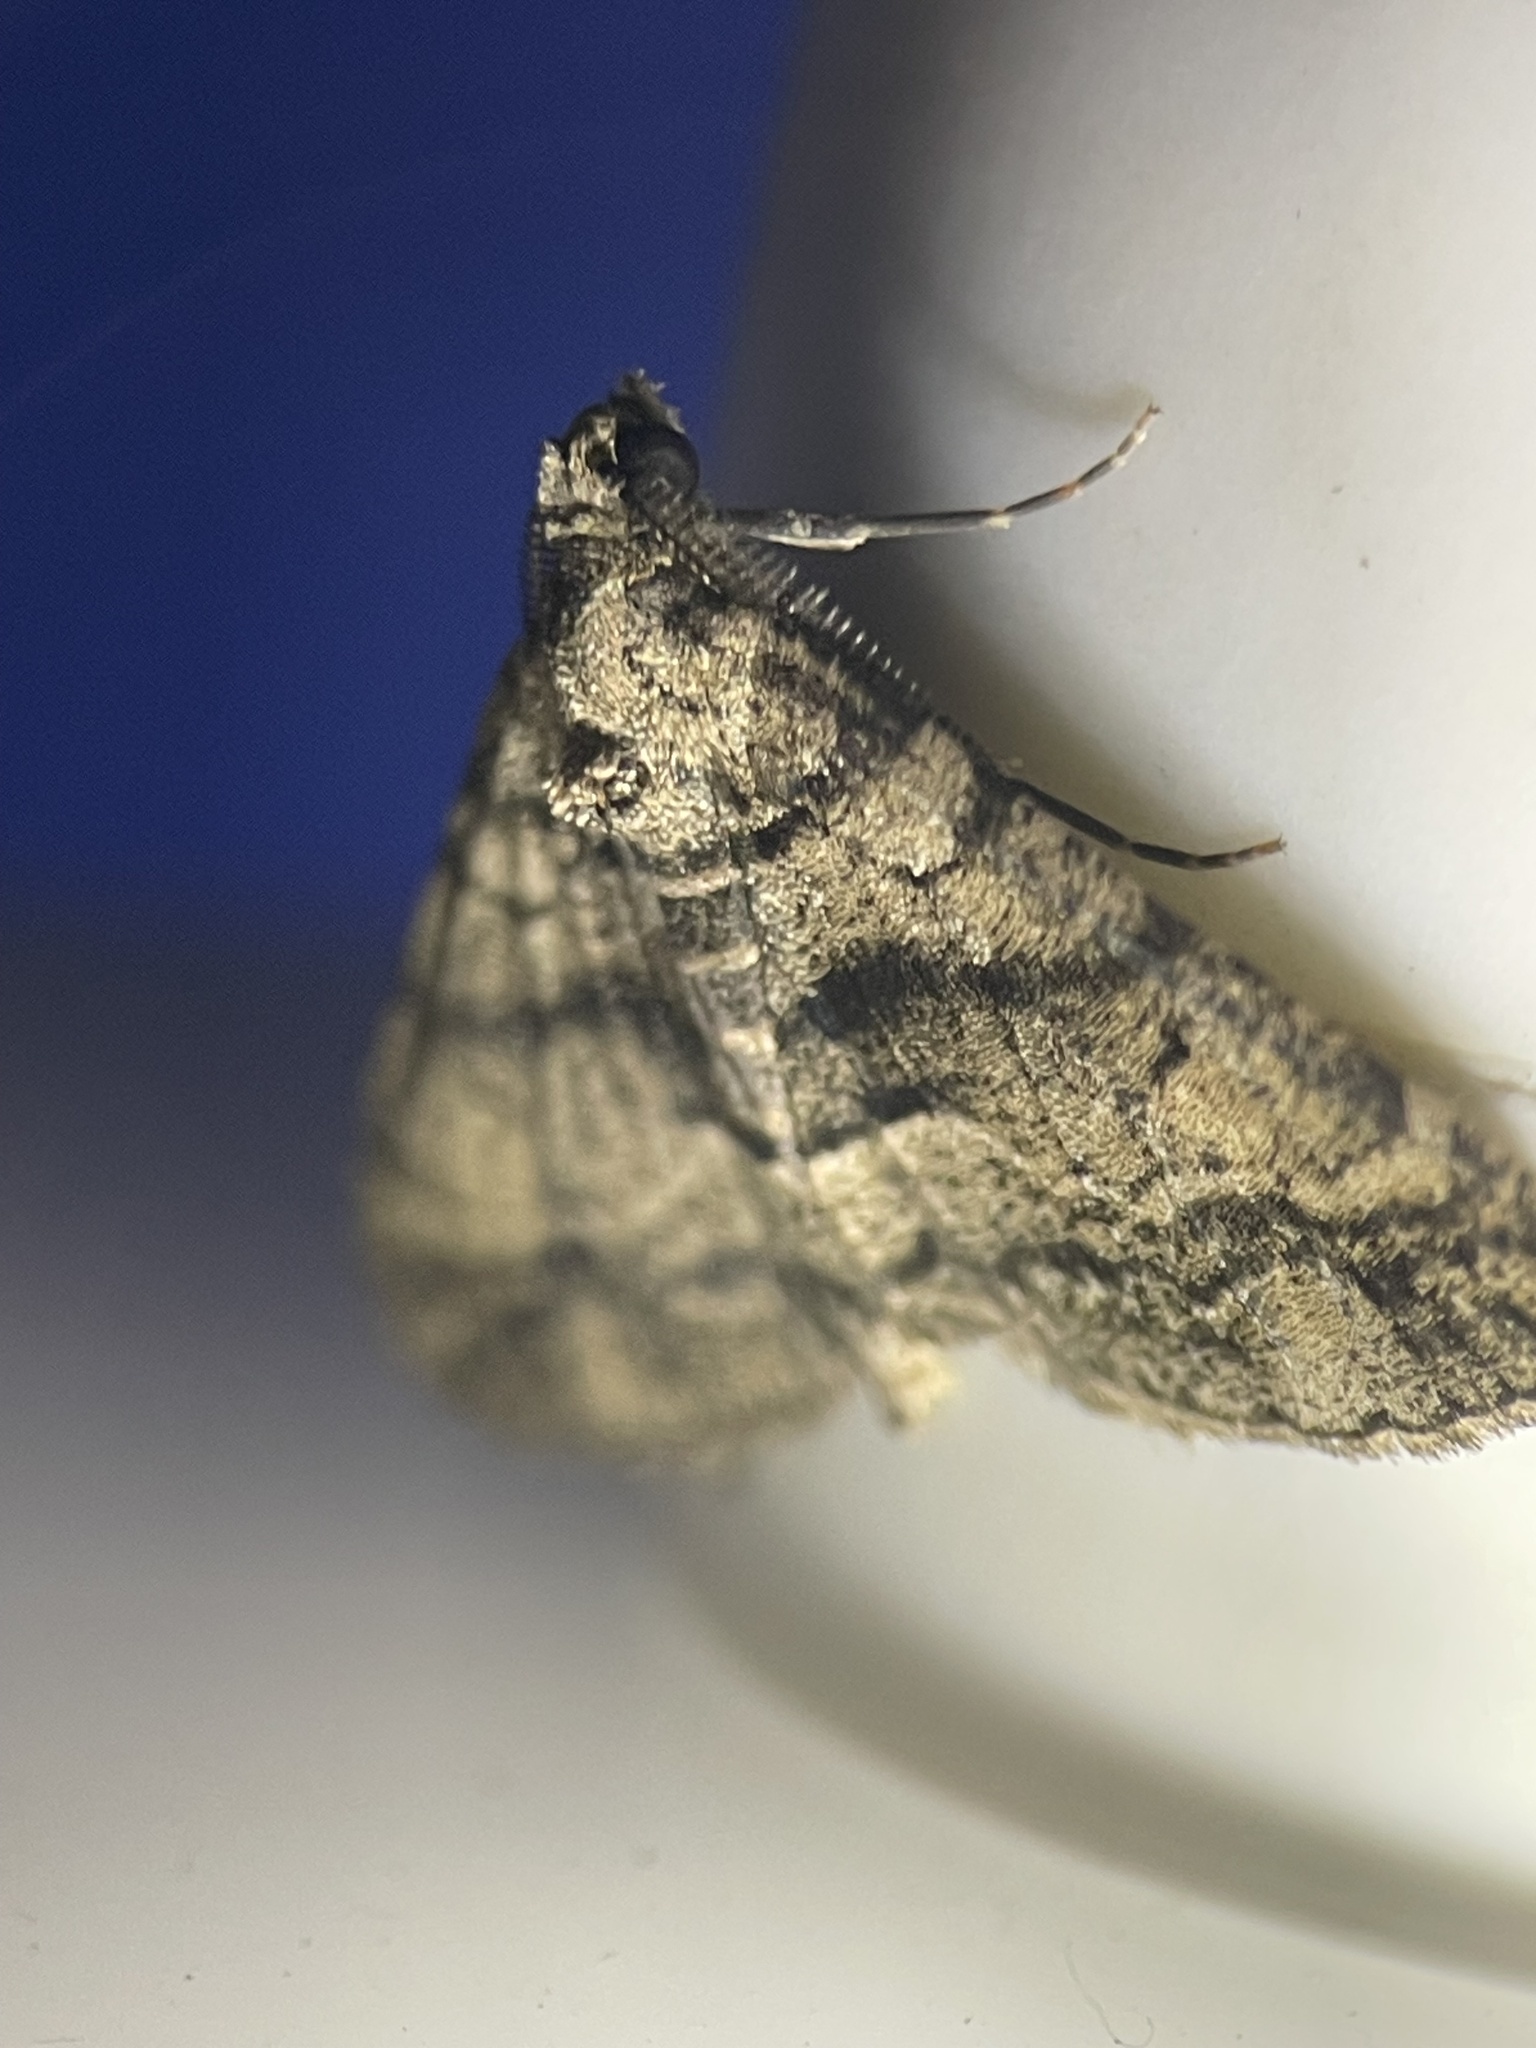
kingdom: Animalia
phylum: Arthropoda
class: Insecta
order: Lepidoptera
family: Geometridae
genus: Lipogya
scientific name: Lipogya eutheta
